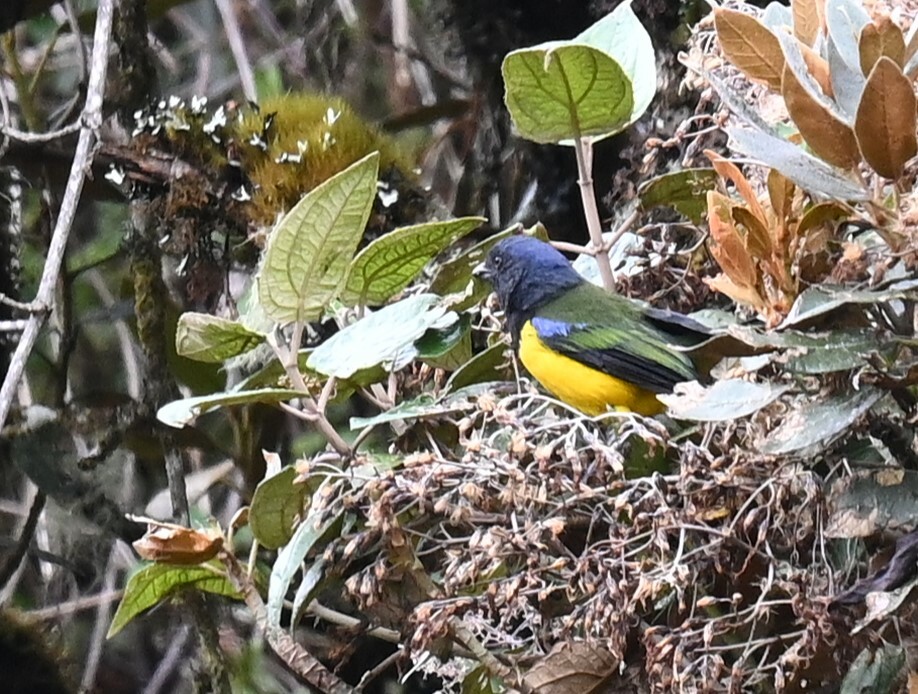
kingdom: Animalia
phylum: Chordata
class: Aves
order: Passeriformes
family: Thraupidae
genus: Cnemathraupis
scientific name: Cnemathraupis eximia
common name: Black-chested mountain-tanager
